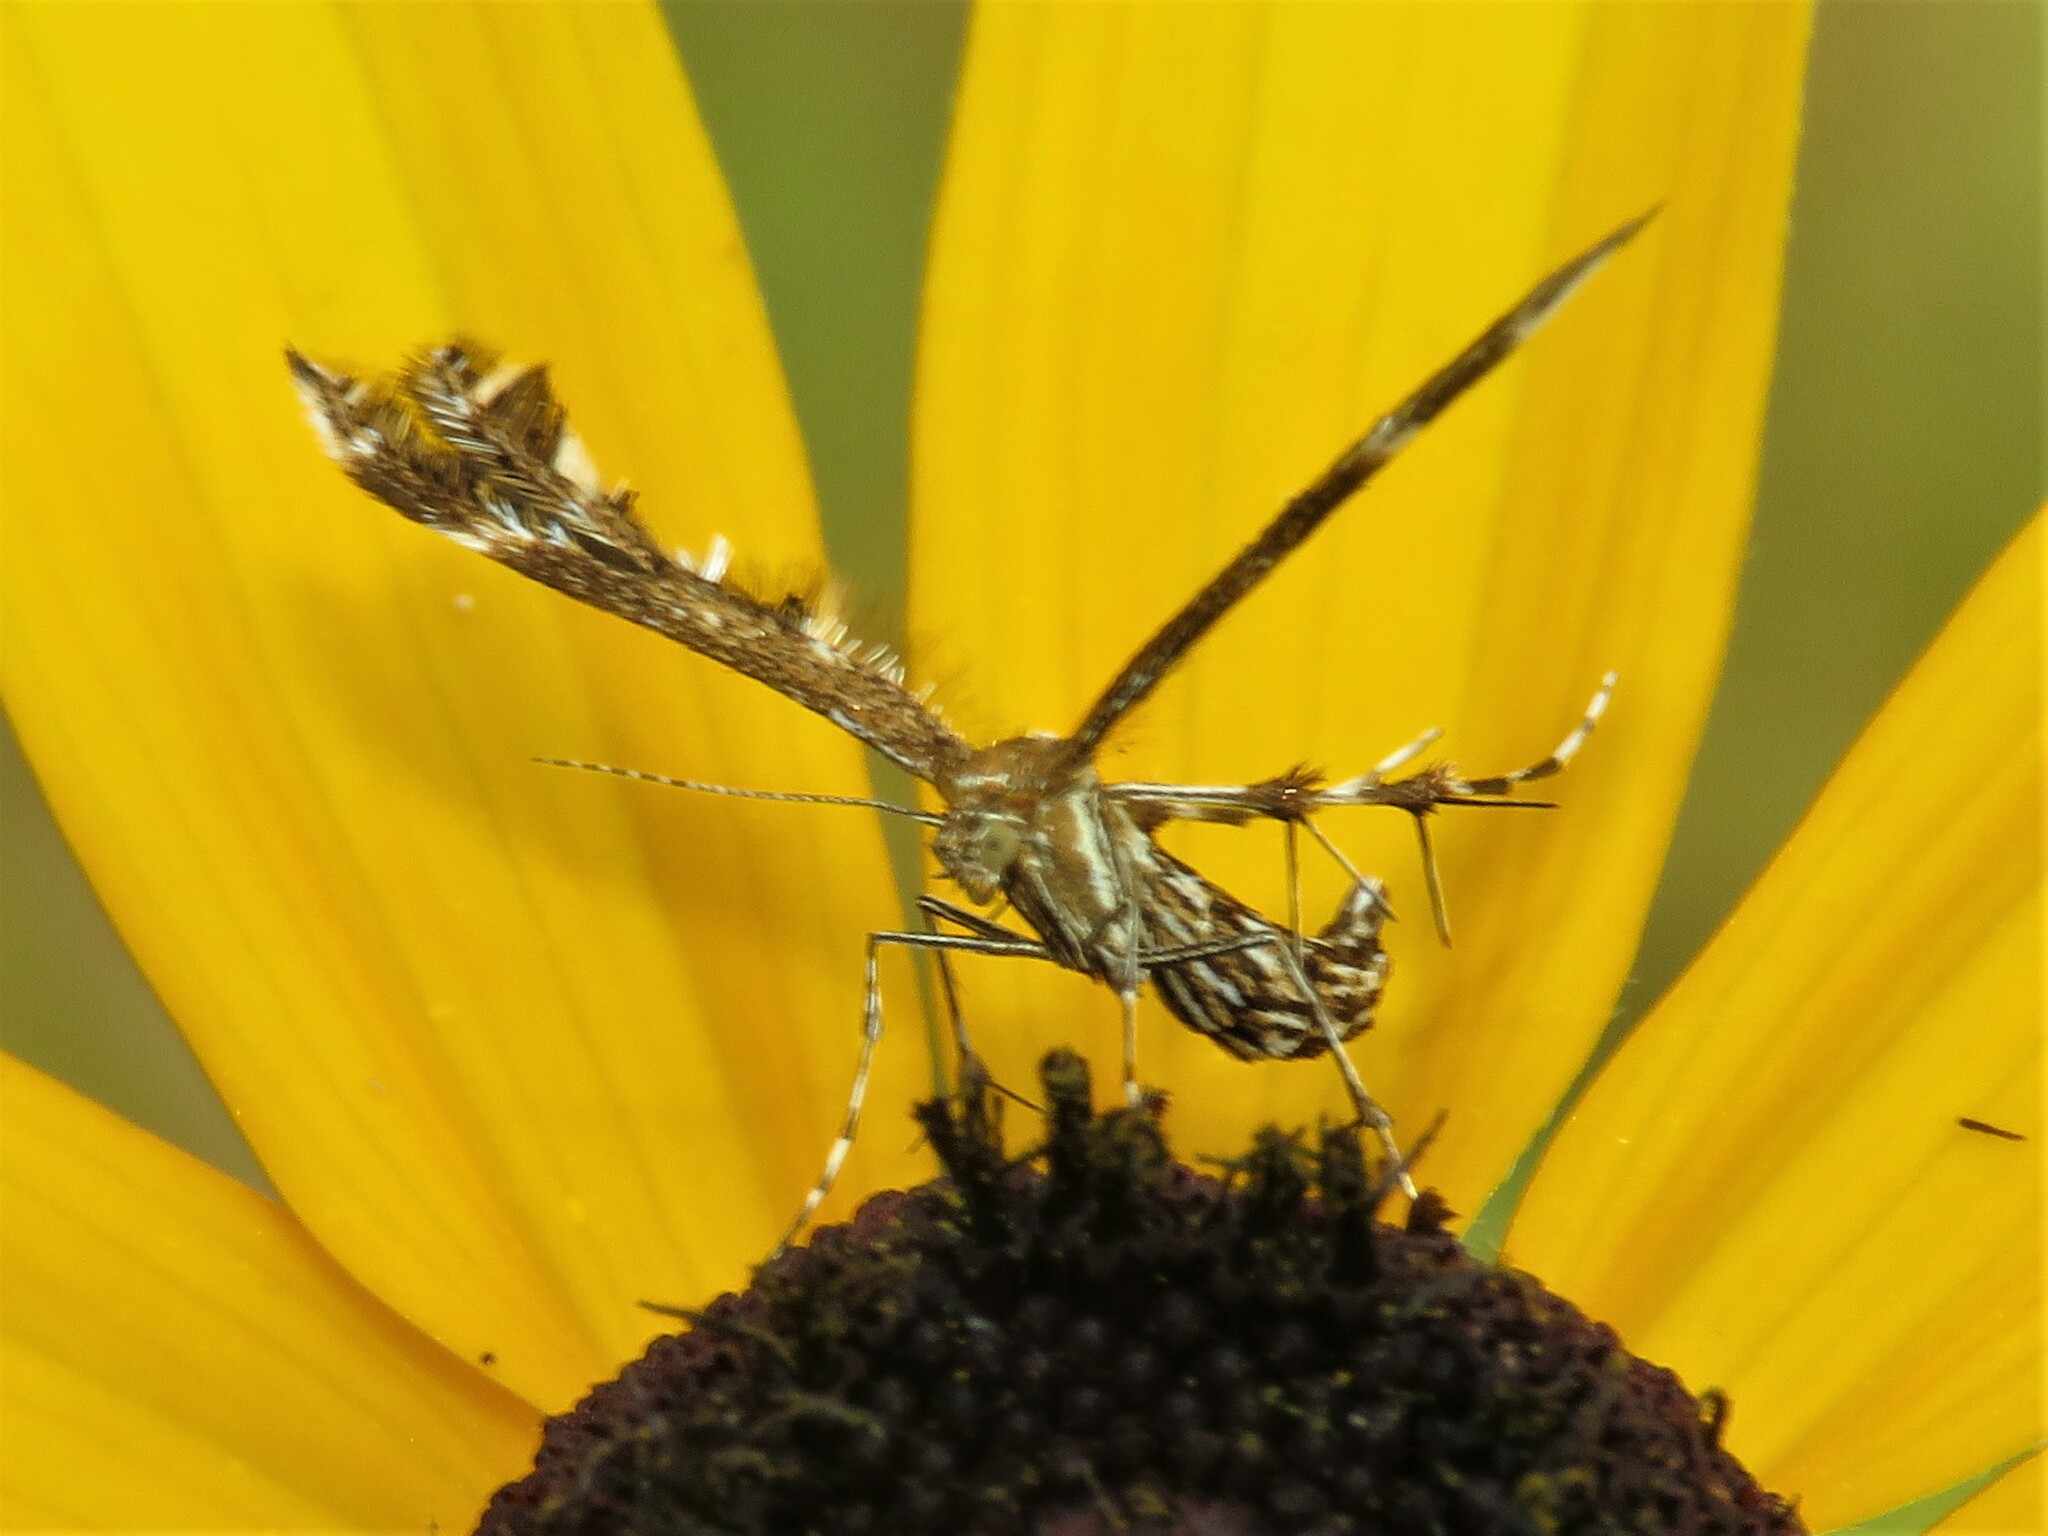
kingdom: Animalia
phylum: Arthropoda
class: Insecta
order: Lepidoptera
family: Pterophoridae
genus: Dejongia
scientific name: Dejongia lobidactylus
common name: Lobed plume moth
